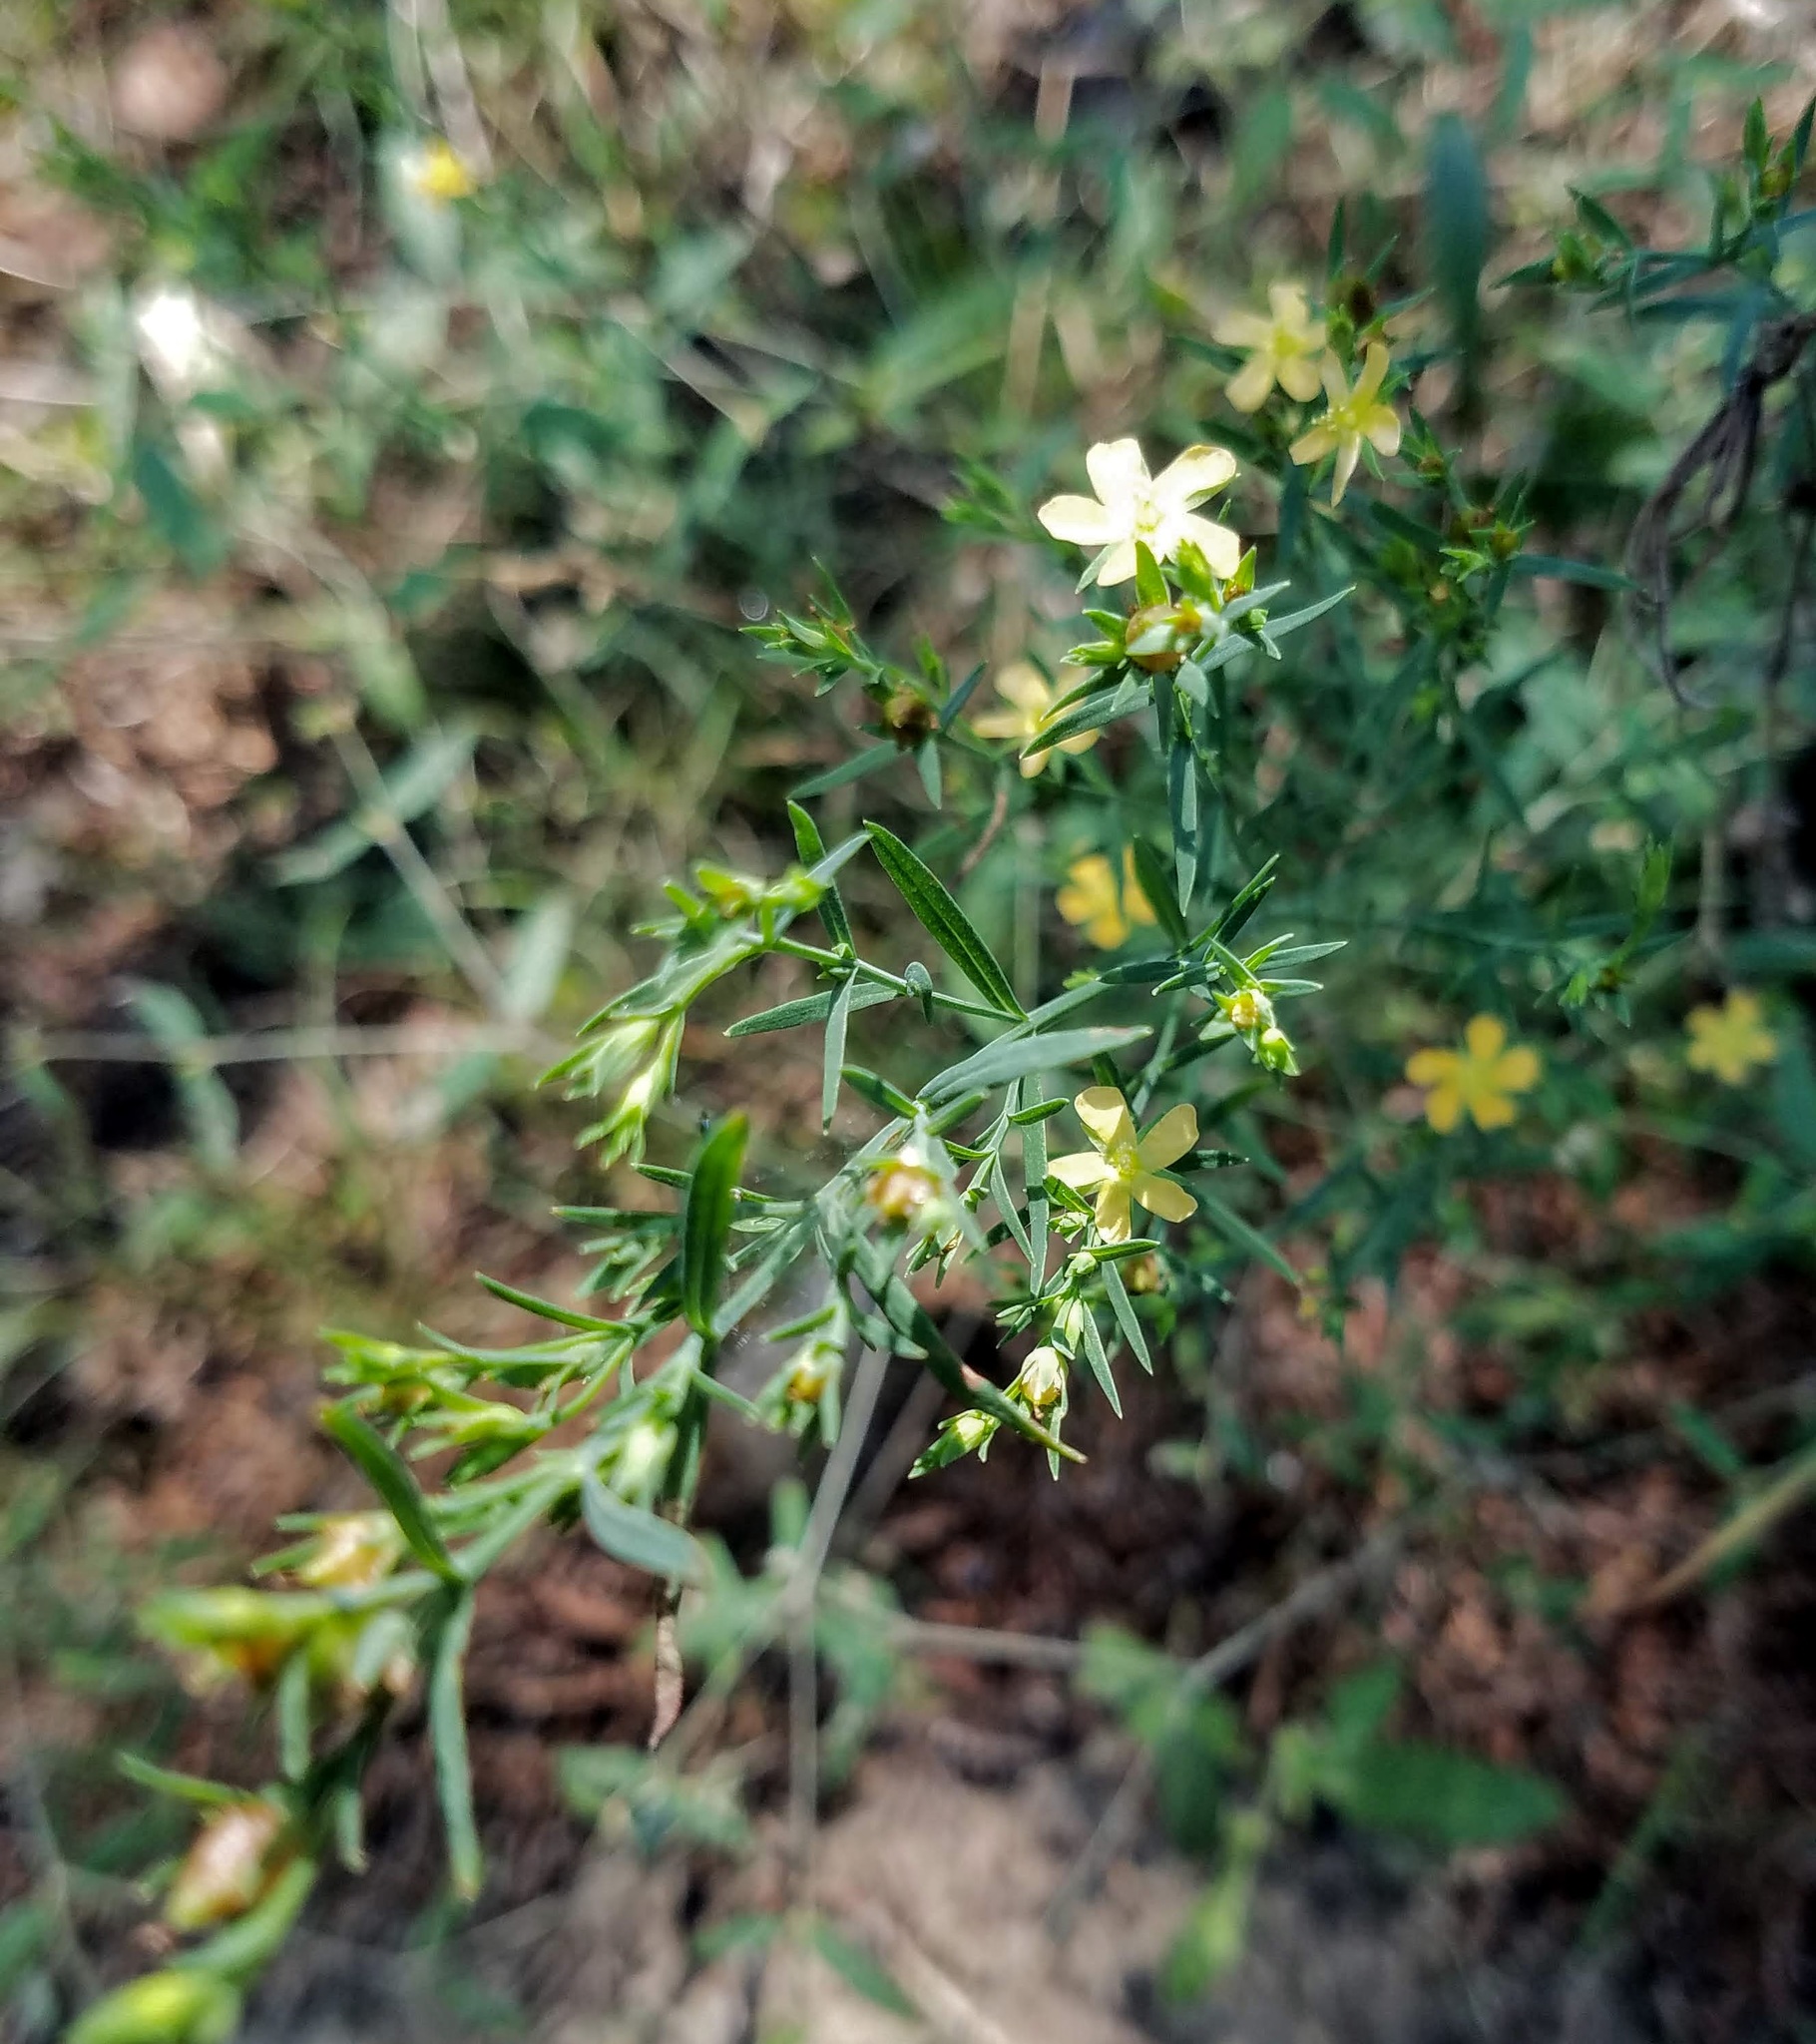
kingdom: Plantae
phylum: Tracheophyta
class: Magnoliopsida
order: Malpighiales
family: Hypericaceae
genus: Hypericum
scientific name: Hypericum drummondii
